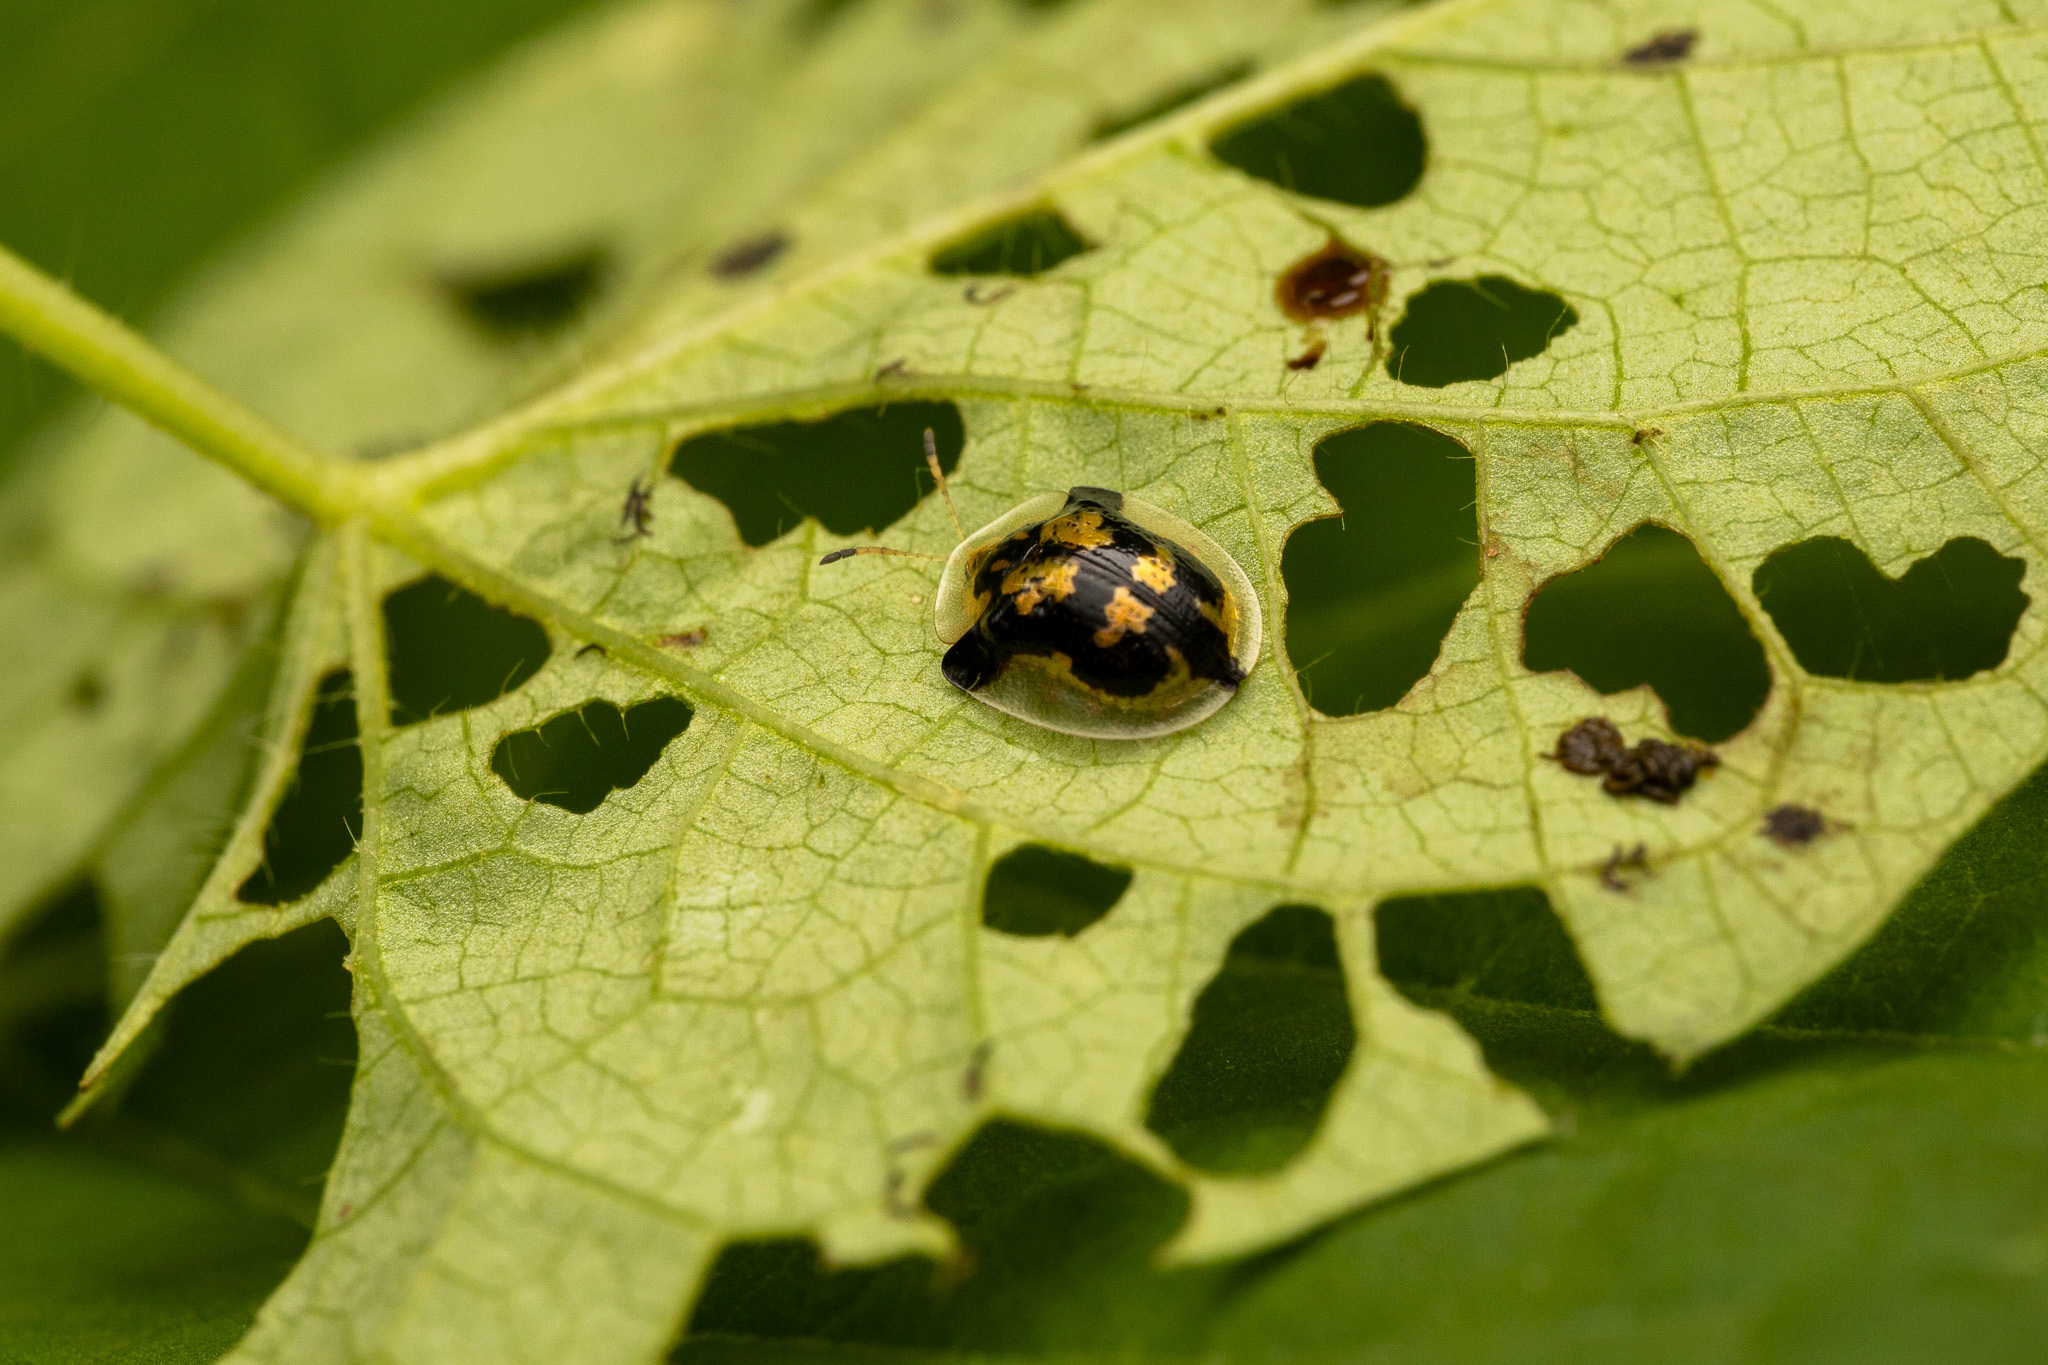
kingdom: Animalia
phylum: Arthropoda
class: Insecta
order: Coleoptera
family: Chrysomelidae
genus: Deloyala
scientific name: Deloyala guttata
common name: Mottled tortoise beetle
